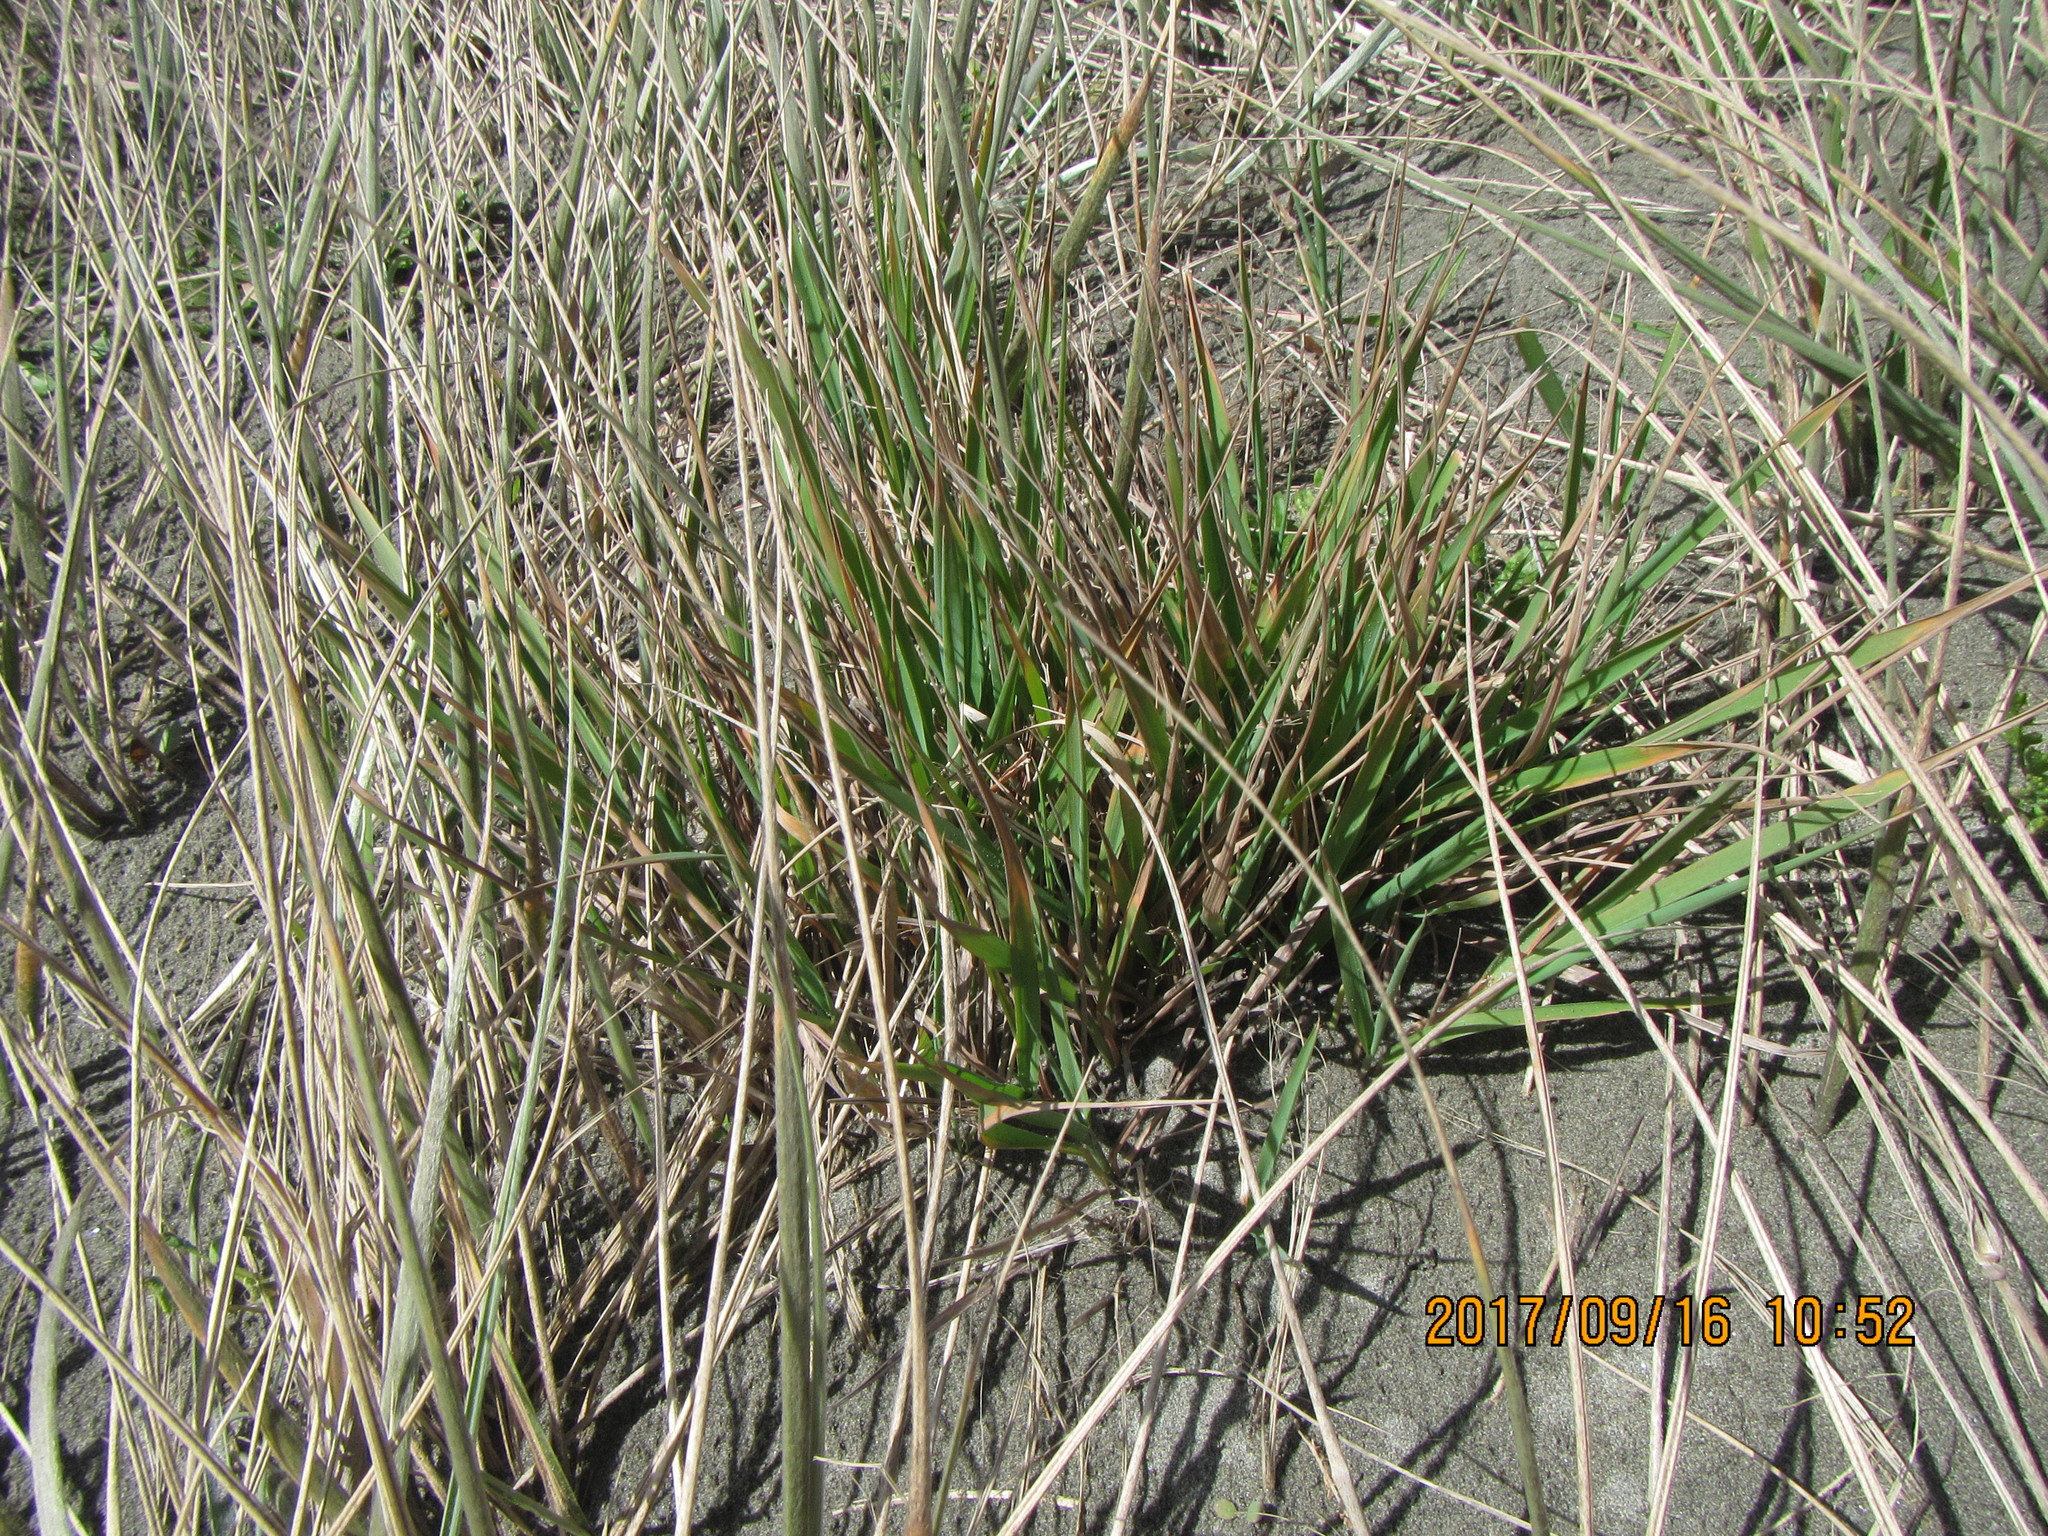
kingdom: Plantae
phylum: Tracheophyta
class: Liliopsida
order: Poales
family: Poaceae
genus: Lachnagrostis
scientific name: Lachnagrostis billardierei
